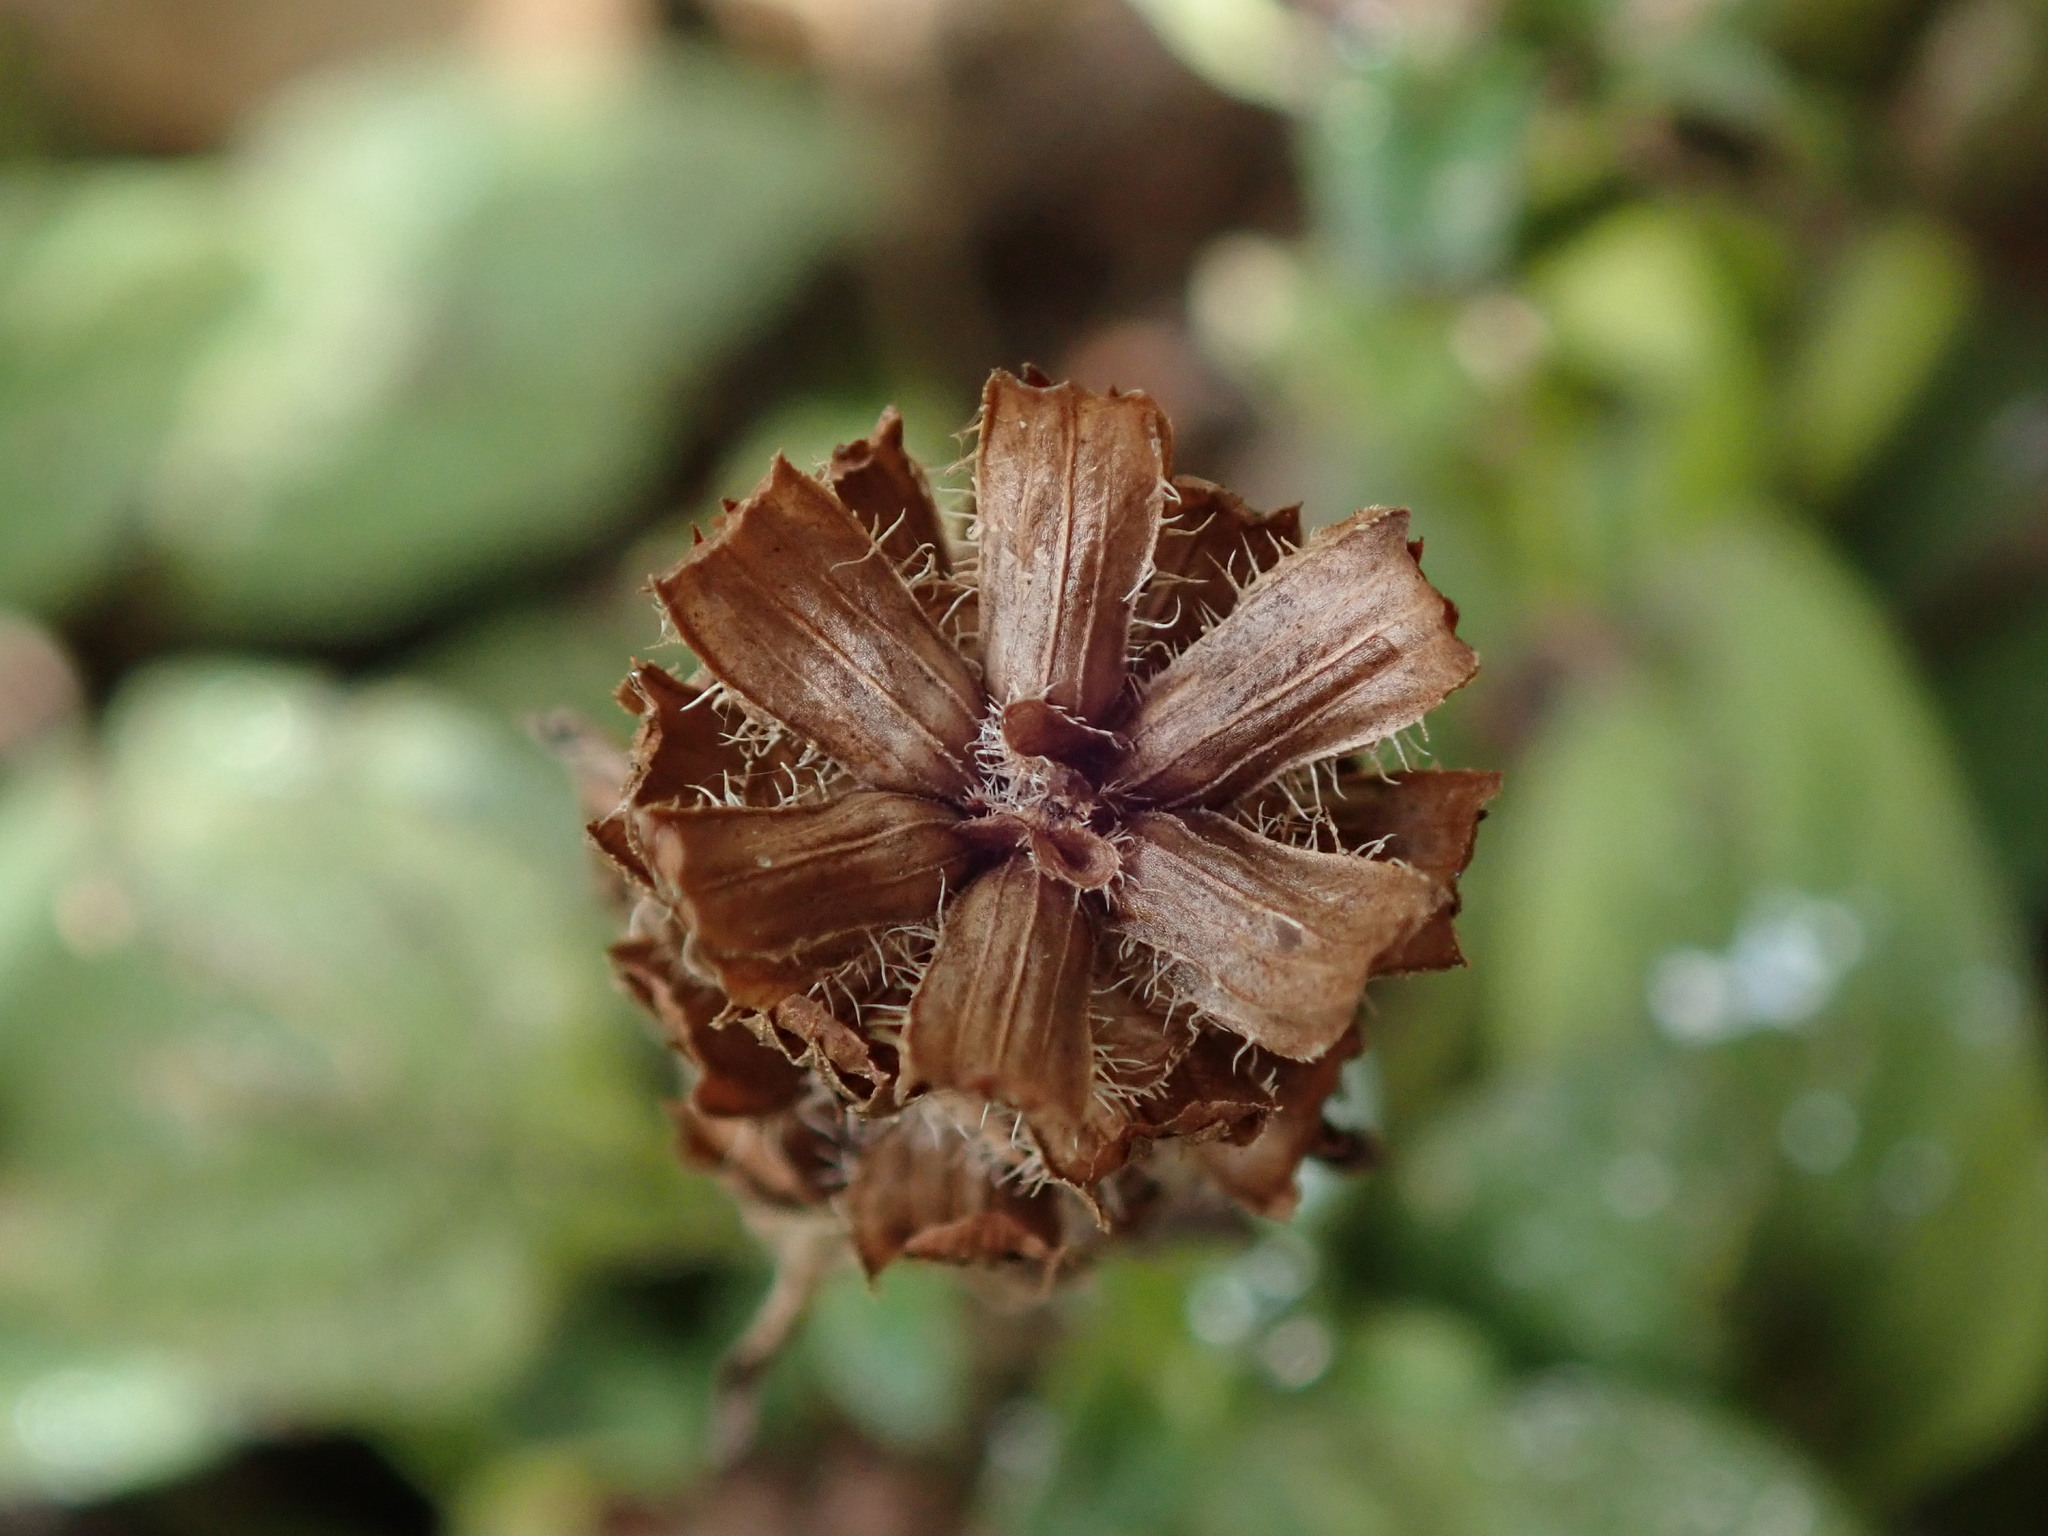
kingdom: Plantae
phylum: Tracheophyta
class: Magnoliopsida
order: Lamiales
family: Lamiaceae
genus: Prunella
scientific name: Prunella vulgaris
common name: Heal-all
